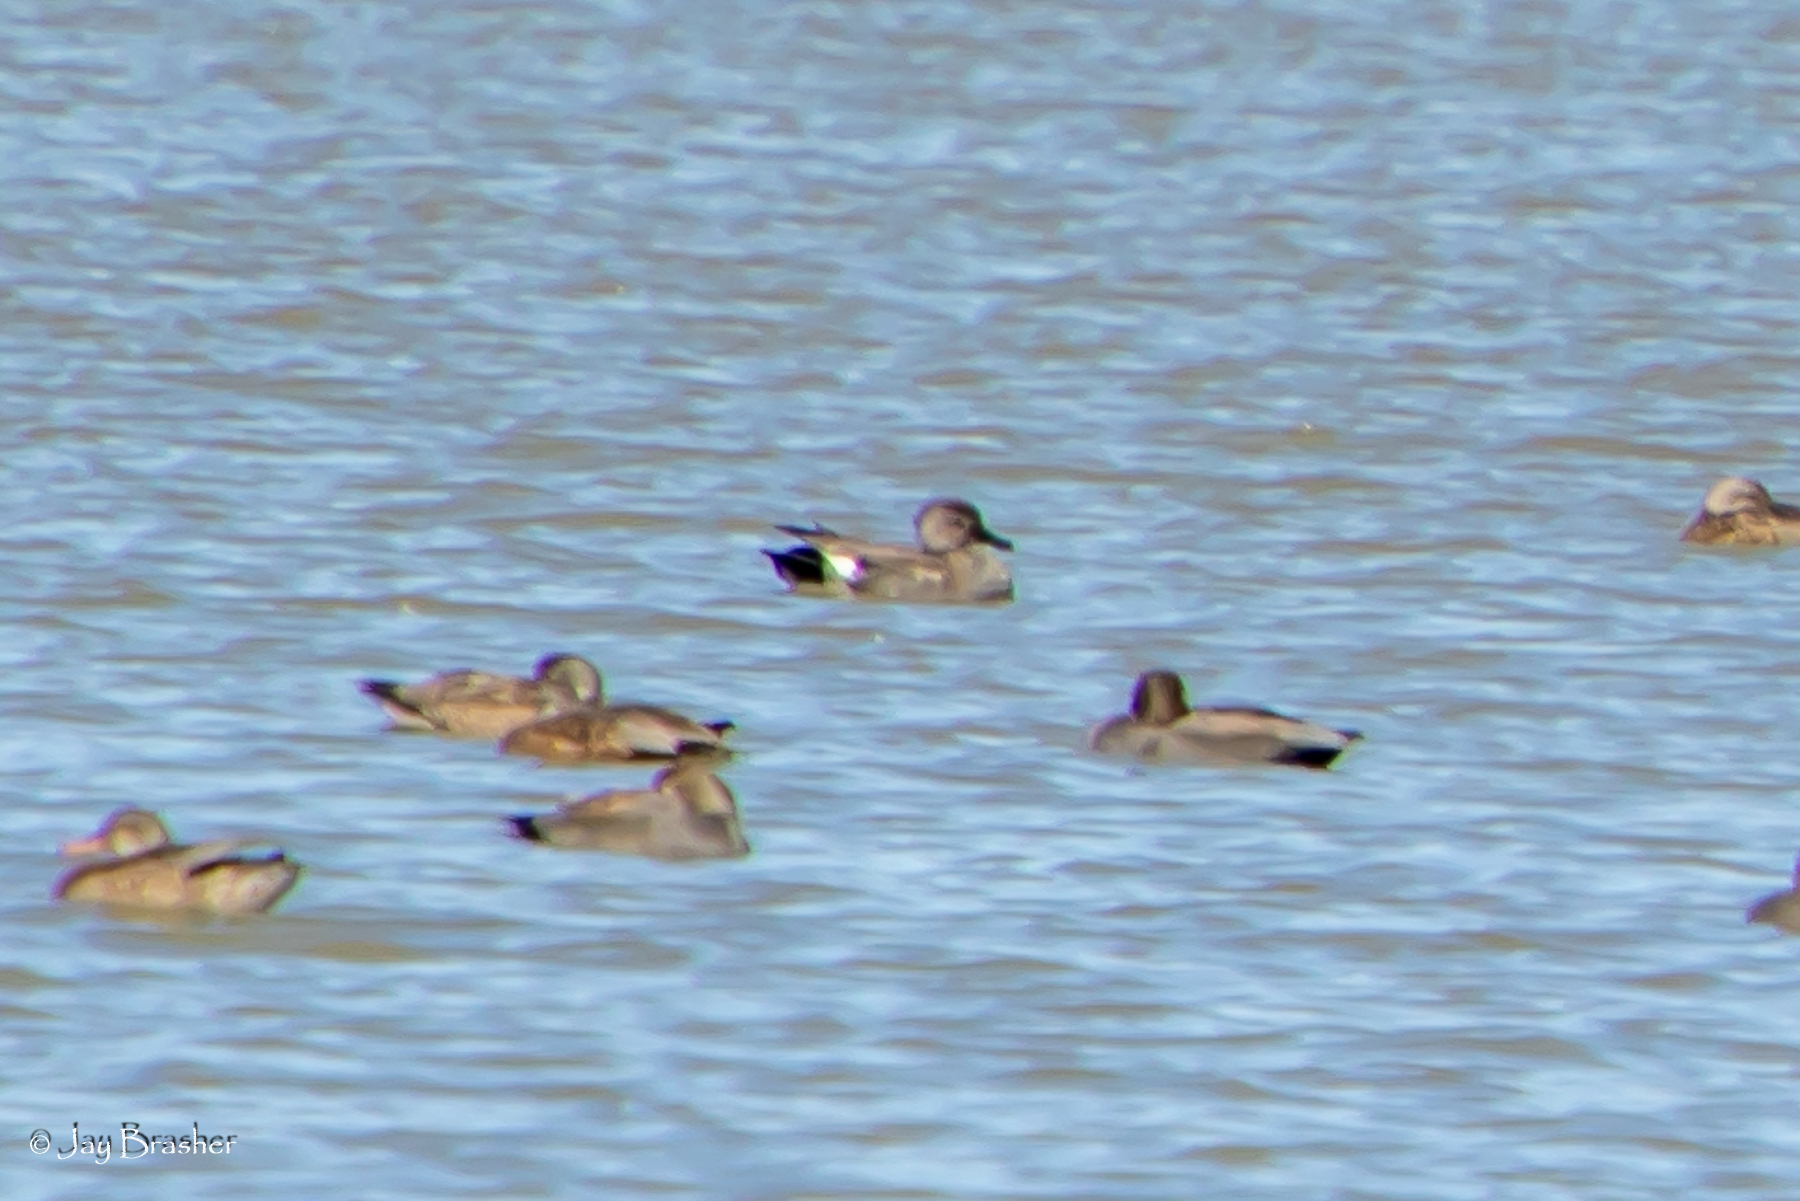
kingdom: Animalia
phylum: Chordata
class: Aves
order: Anseriformes
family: Anatidae
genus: Mareca
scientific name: Mareca strepera
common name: Gadwall
